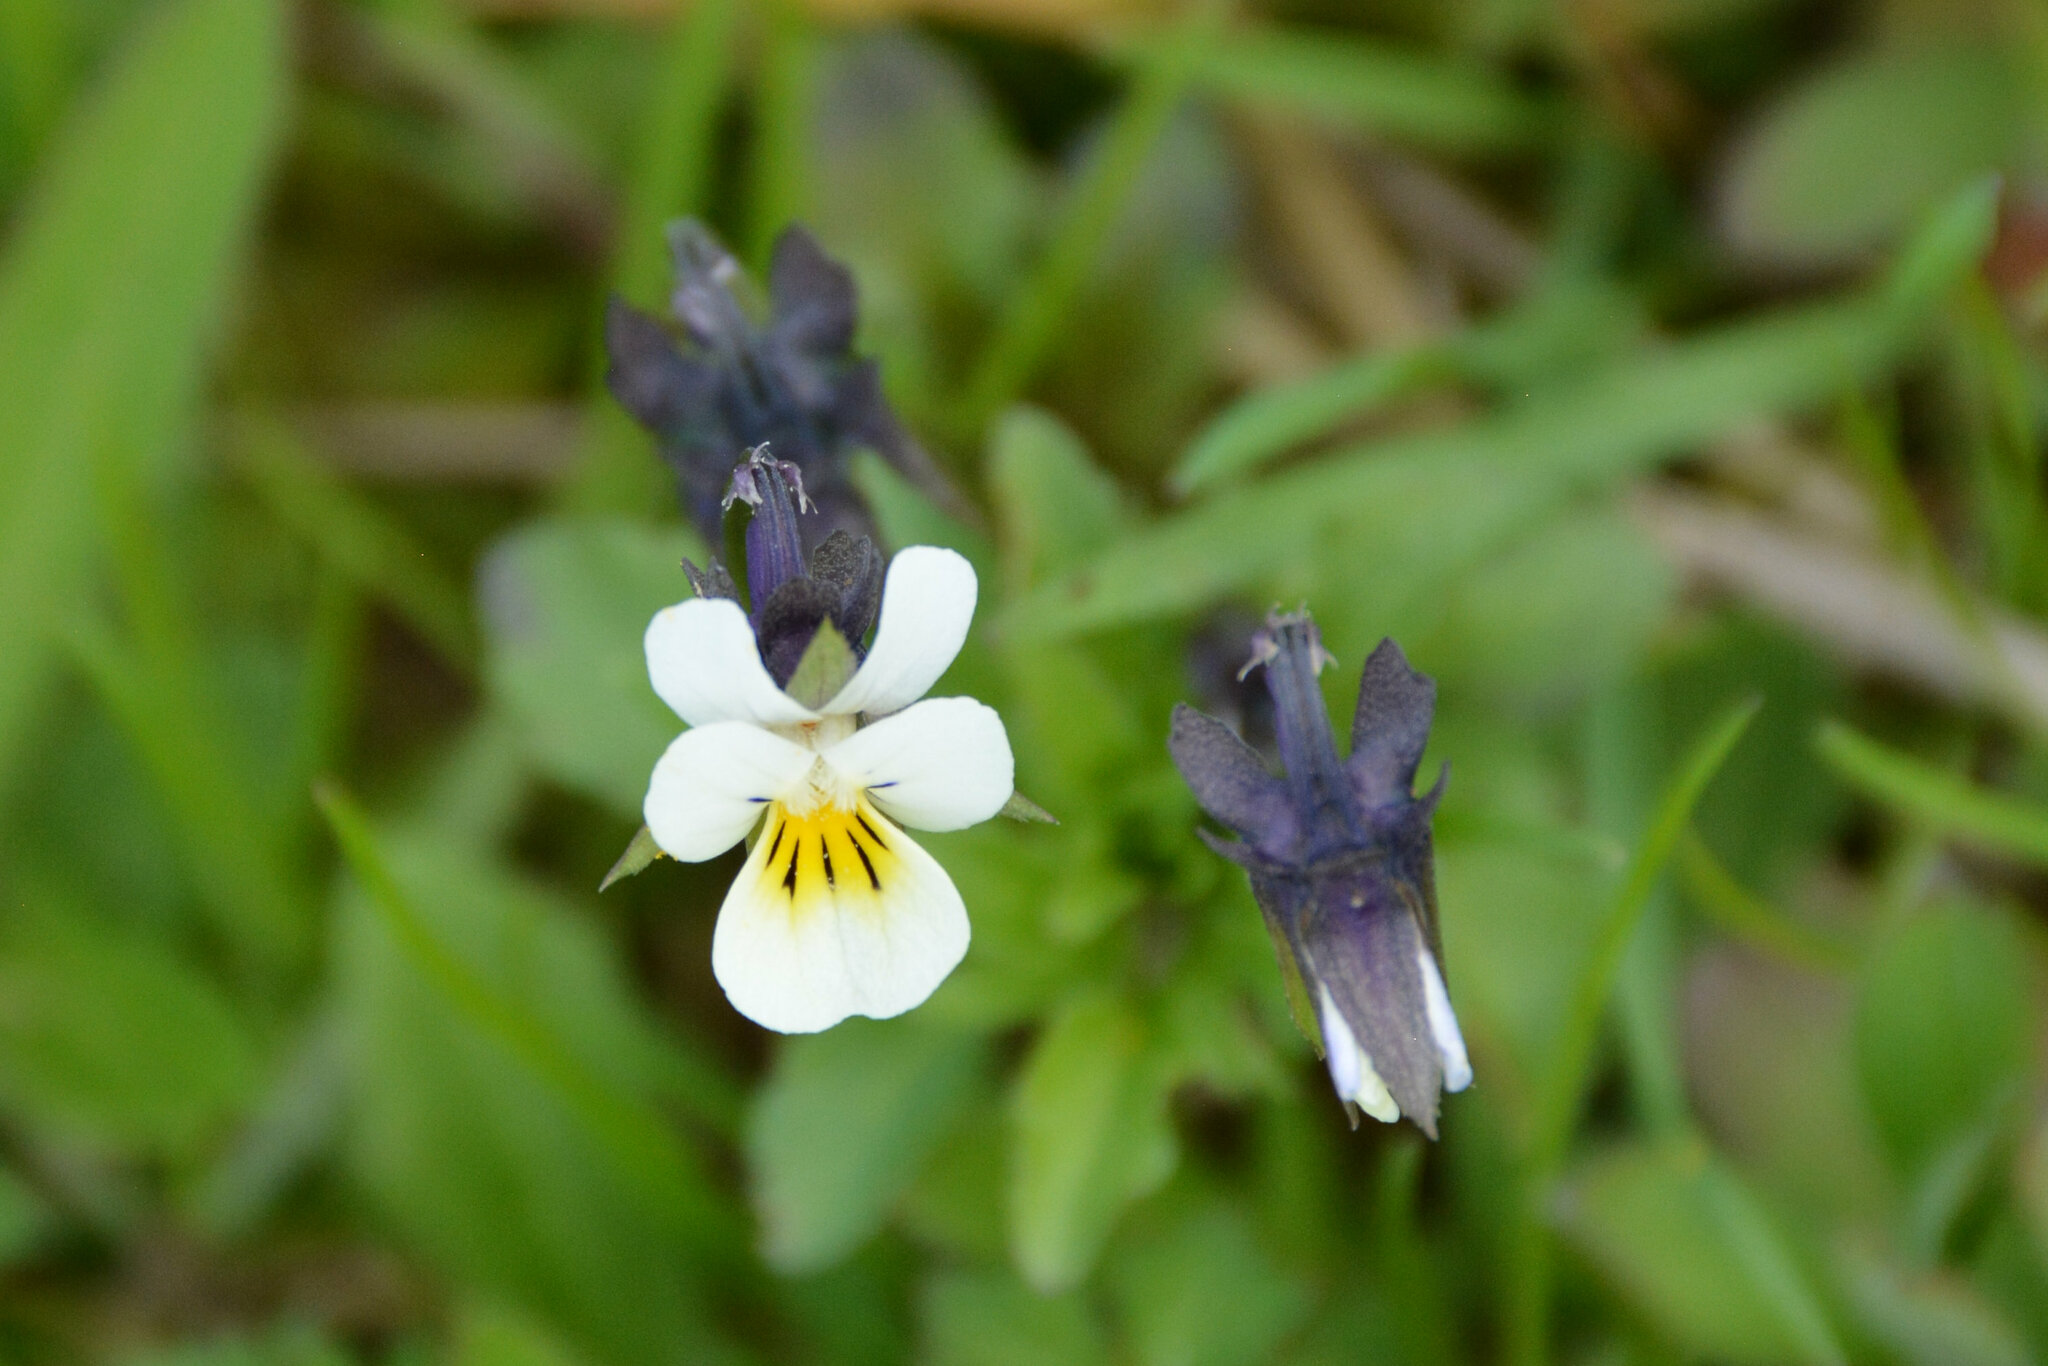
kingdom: Plantae
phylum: Tracheophyta
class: Magnoliopsida
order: Malpighiales
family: Violaceae
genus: Viola
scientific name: Viola arvensis
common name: Field pansy
